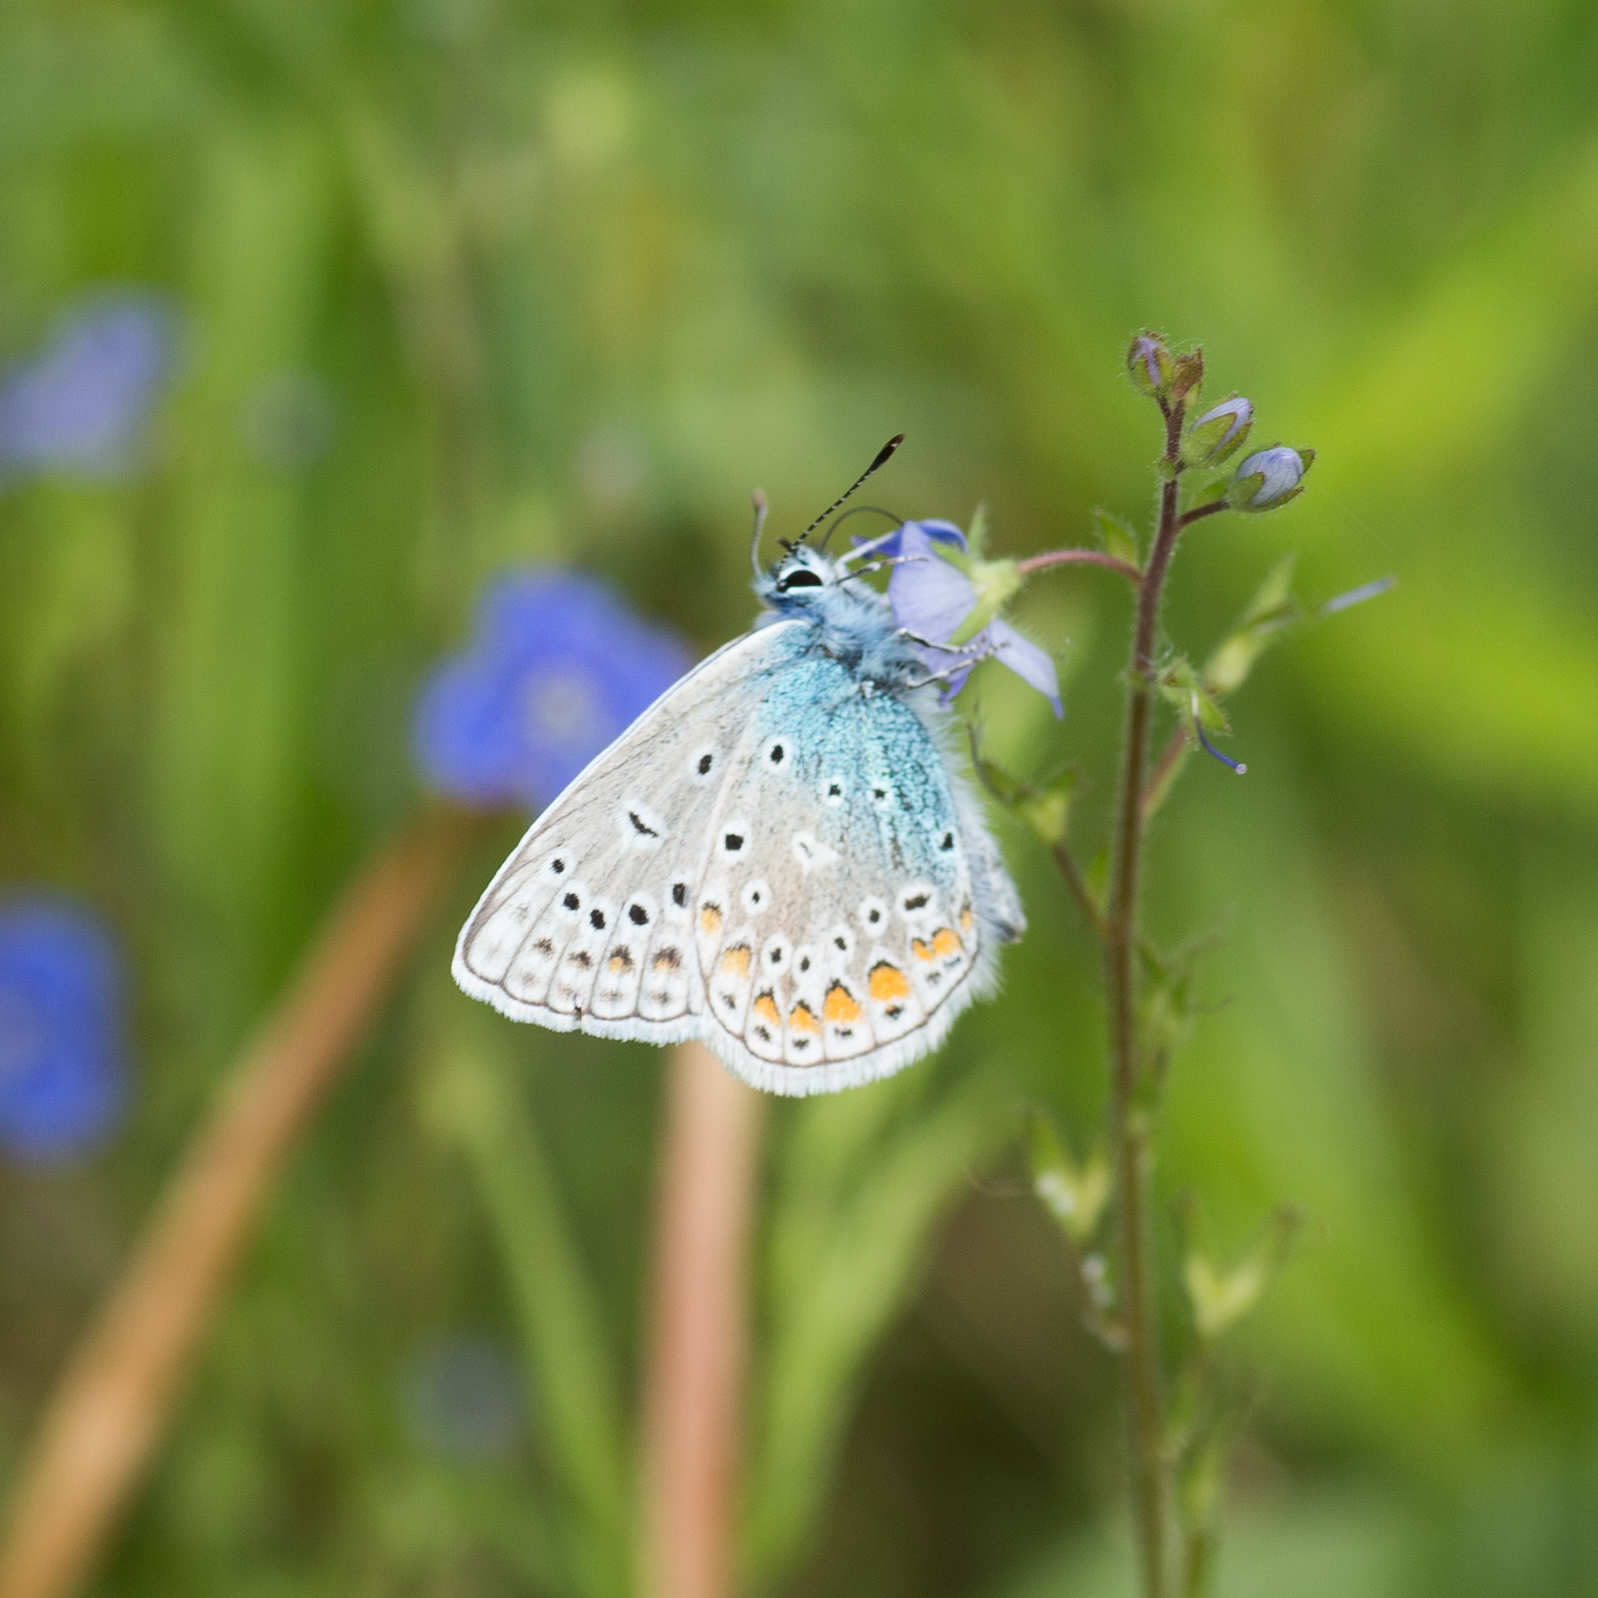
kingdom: Animalia
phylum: Arthropoda
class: Insecta
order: Lepidoptera
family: Lycaenidae
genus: Polyommatus
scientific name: Polyommatus icarus
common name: Common blue
